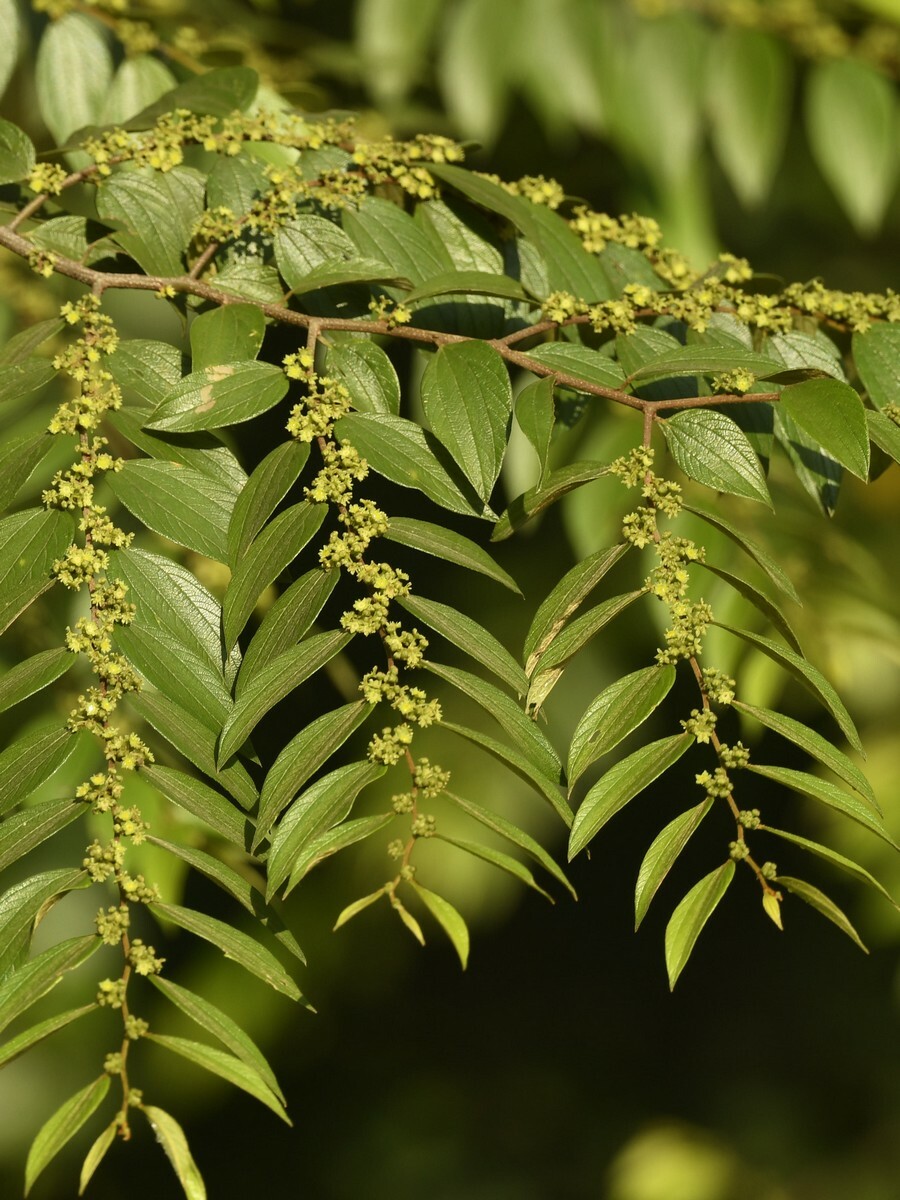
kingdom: Plantae
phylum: Tracheophyta
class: Magnoliopsida
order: Rosales
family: Rhamnaceae
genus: Ziziphus
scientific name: Ziziphus oenopolia
